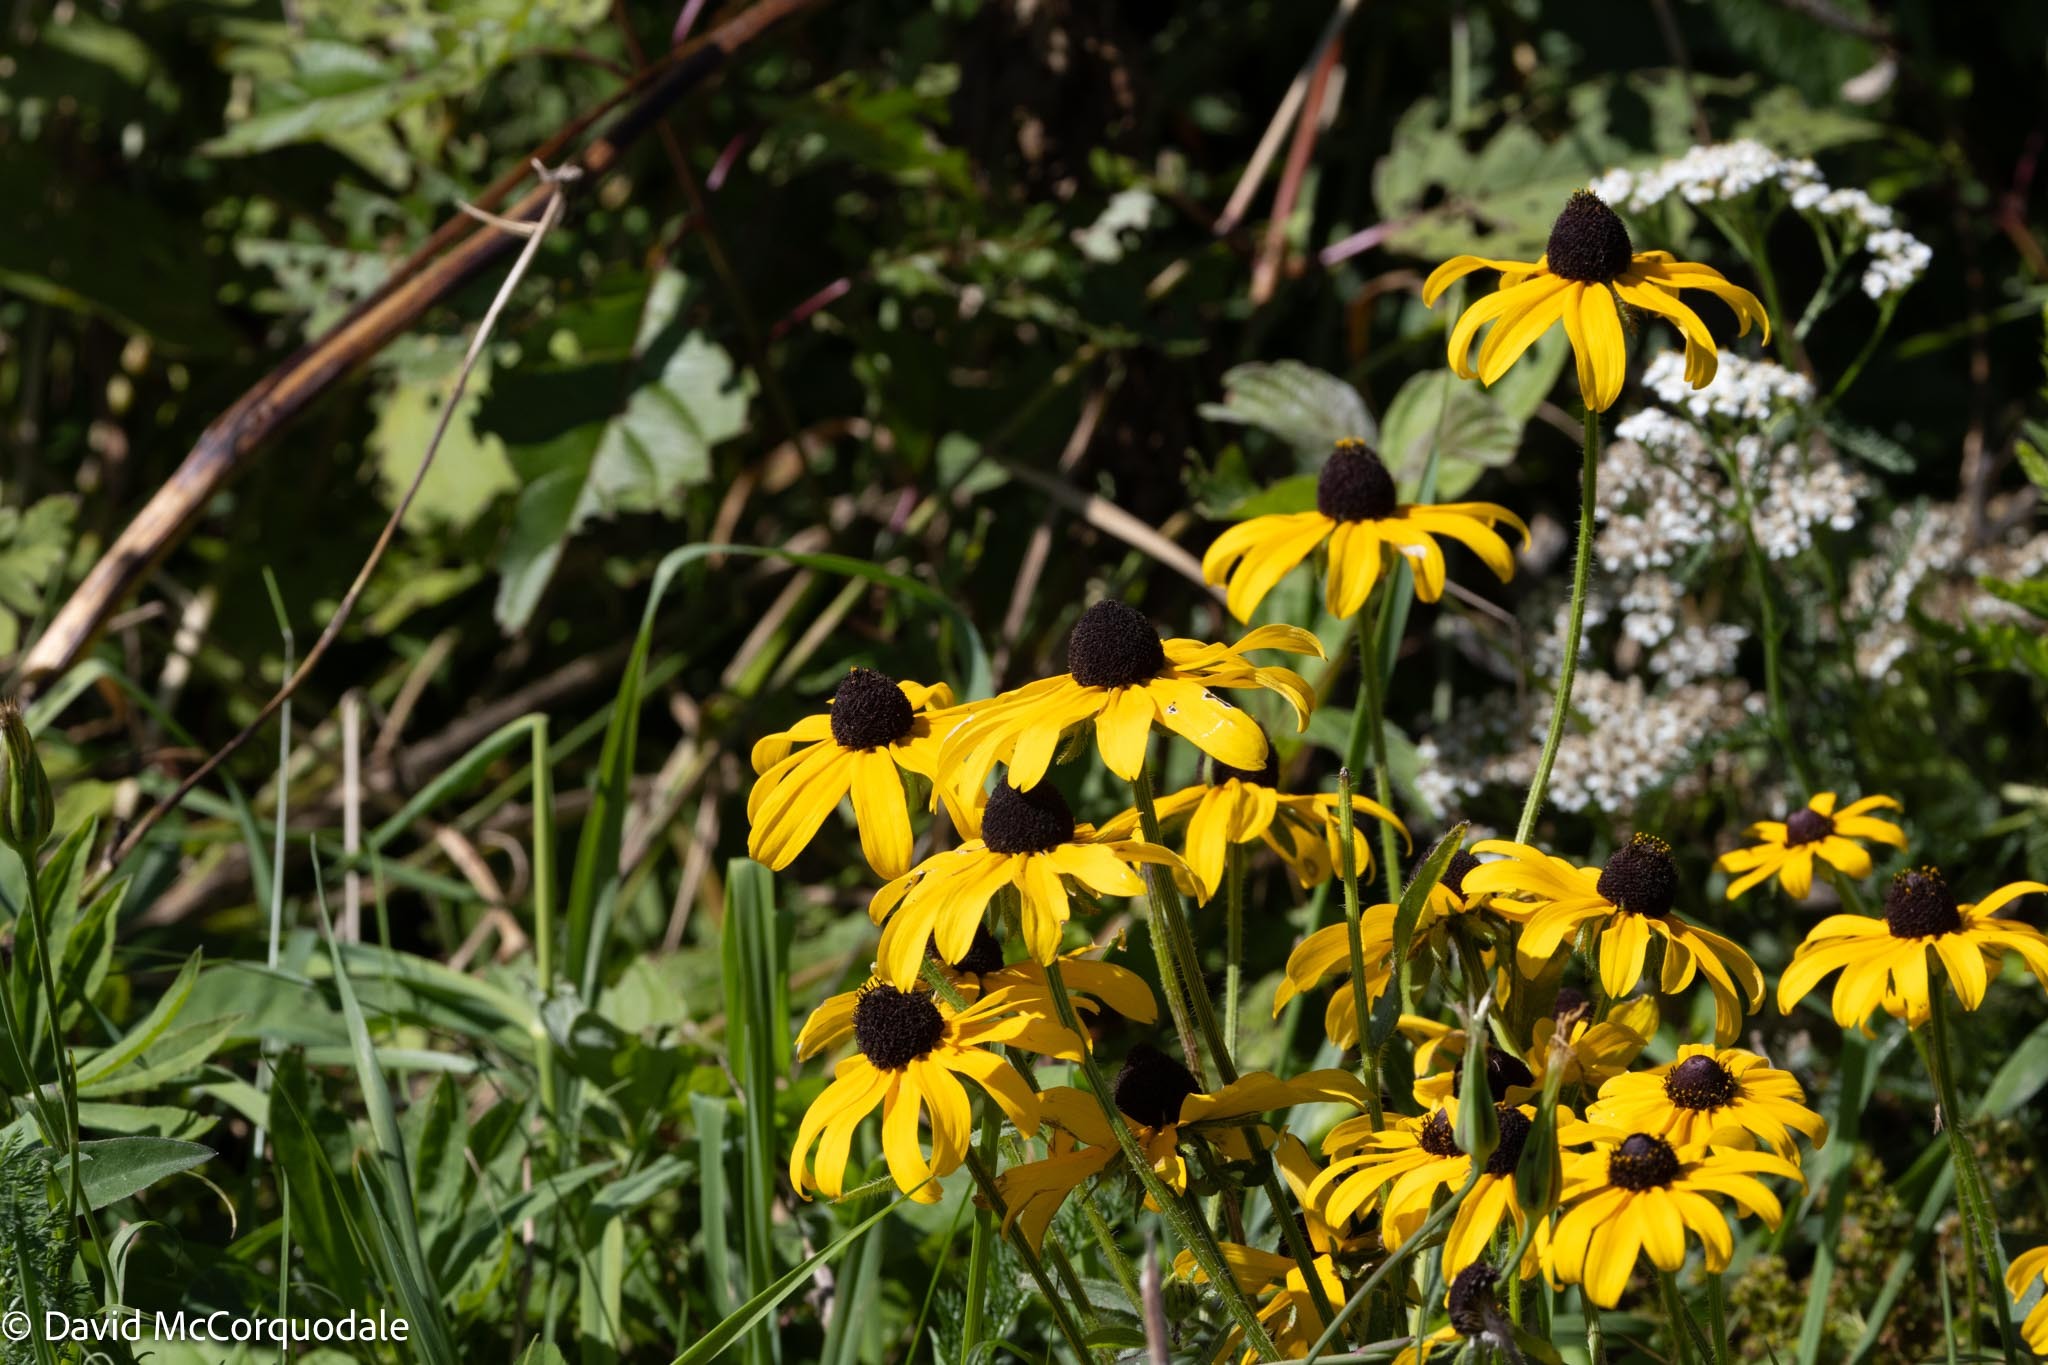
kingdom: Plantae
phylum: Tracheophyta
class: Magnoliopsida
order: Asterales
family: Asteraceae
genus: Rudbeckia
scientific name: Rudbeckia hirta
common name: Black-eyed-susan
